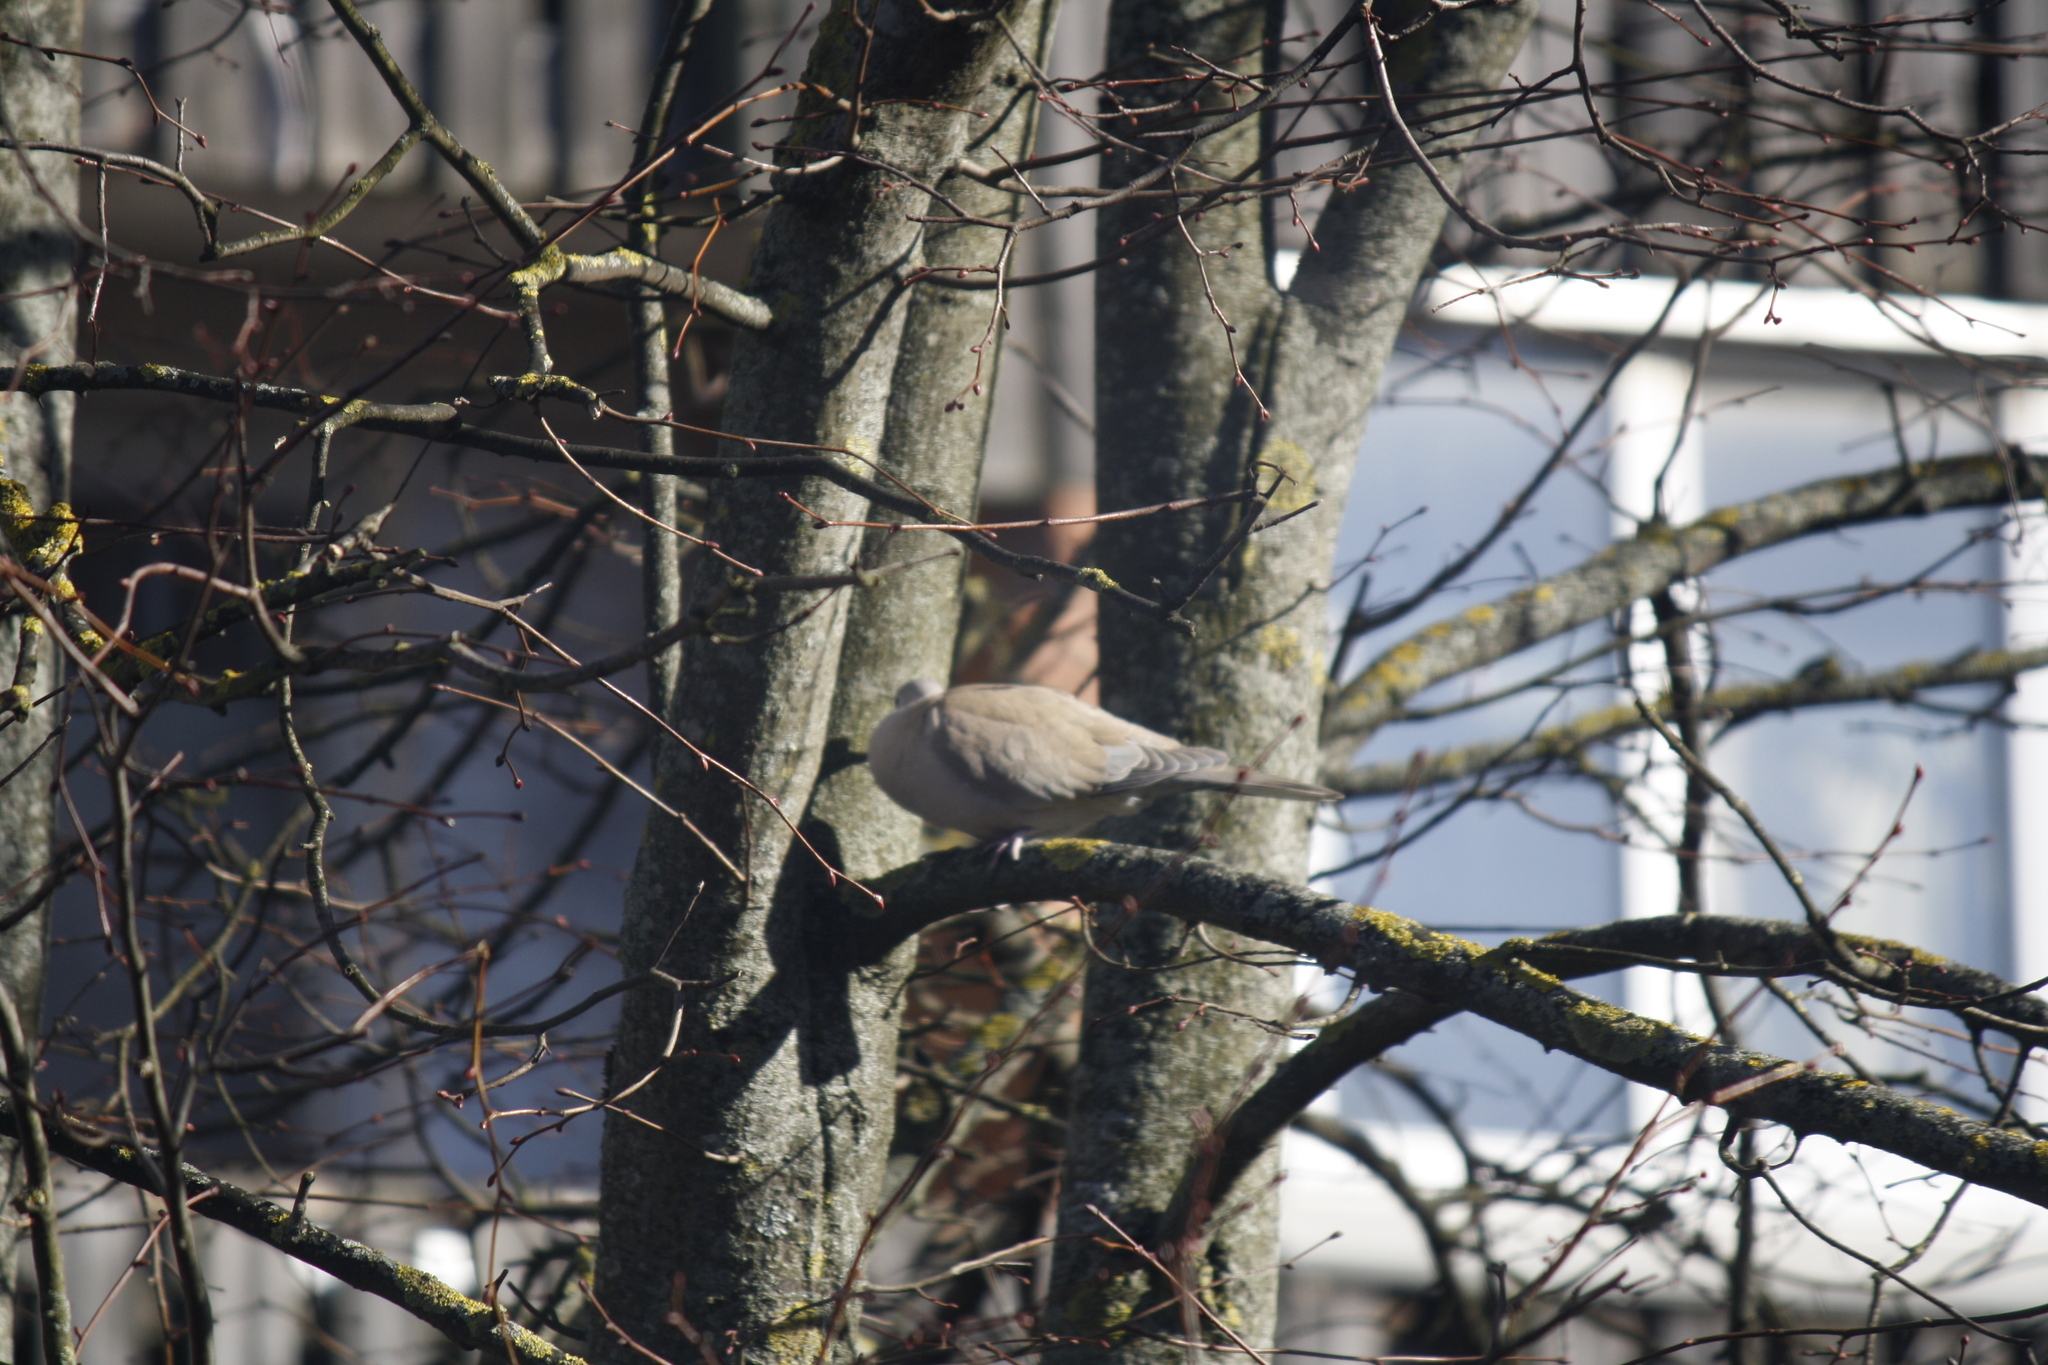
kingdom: Animalia
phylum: Chordata
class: Aves
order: Columbiformes
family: Columbidae
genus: Streptopelia
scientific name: Streptopelia decaocto
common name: Eurasian collared dove
